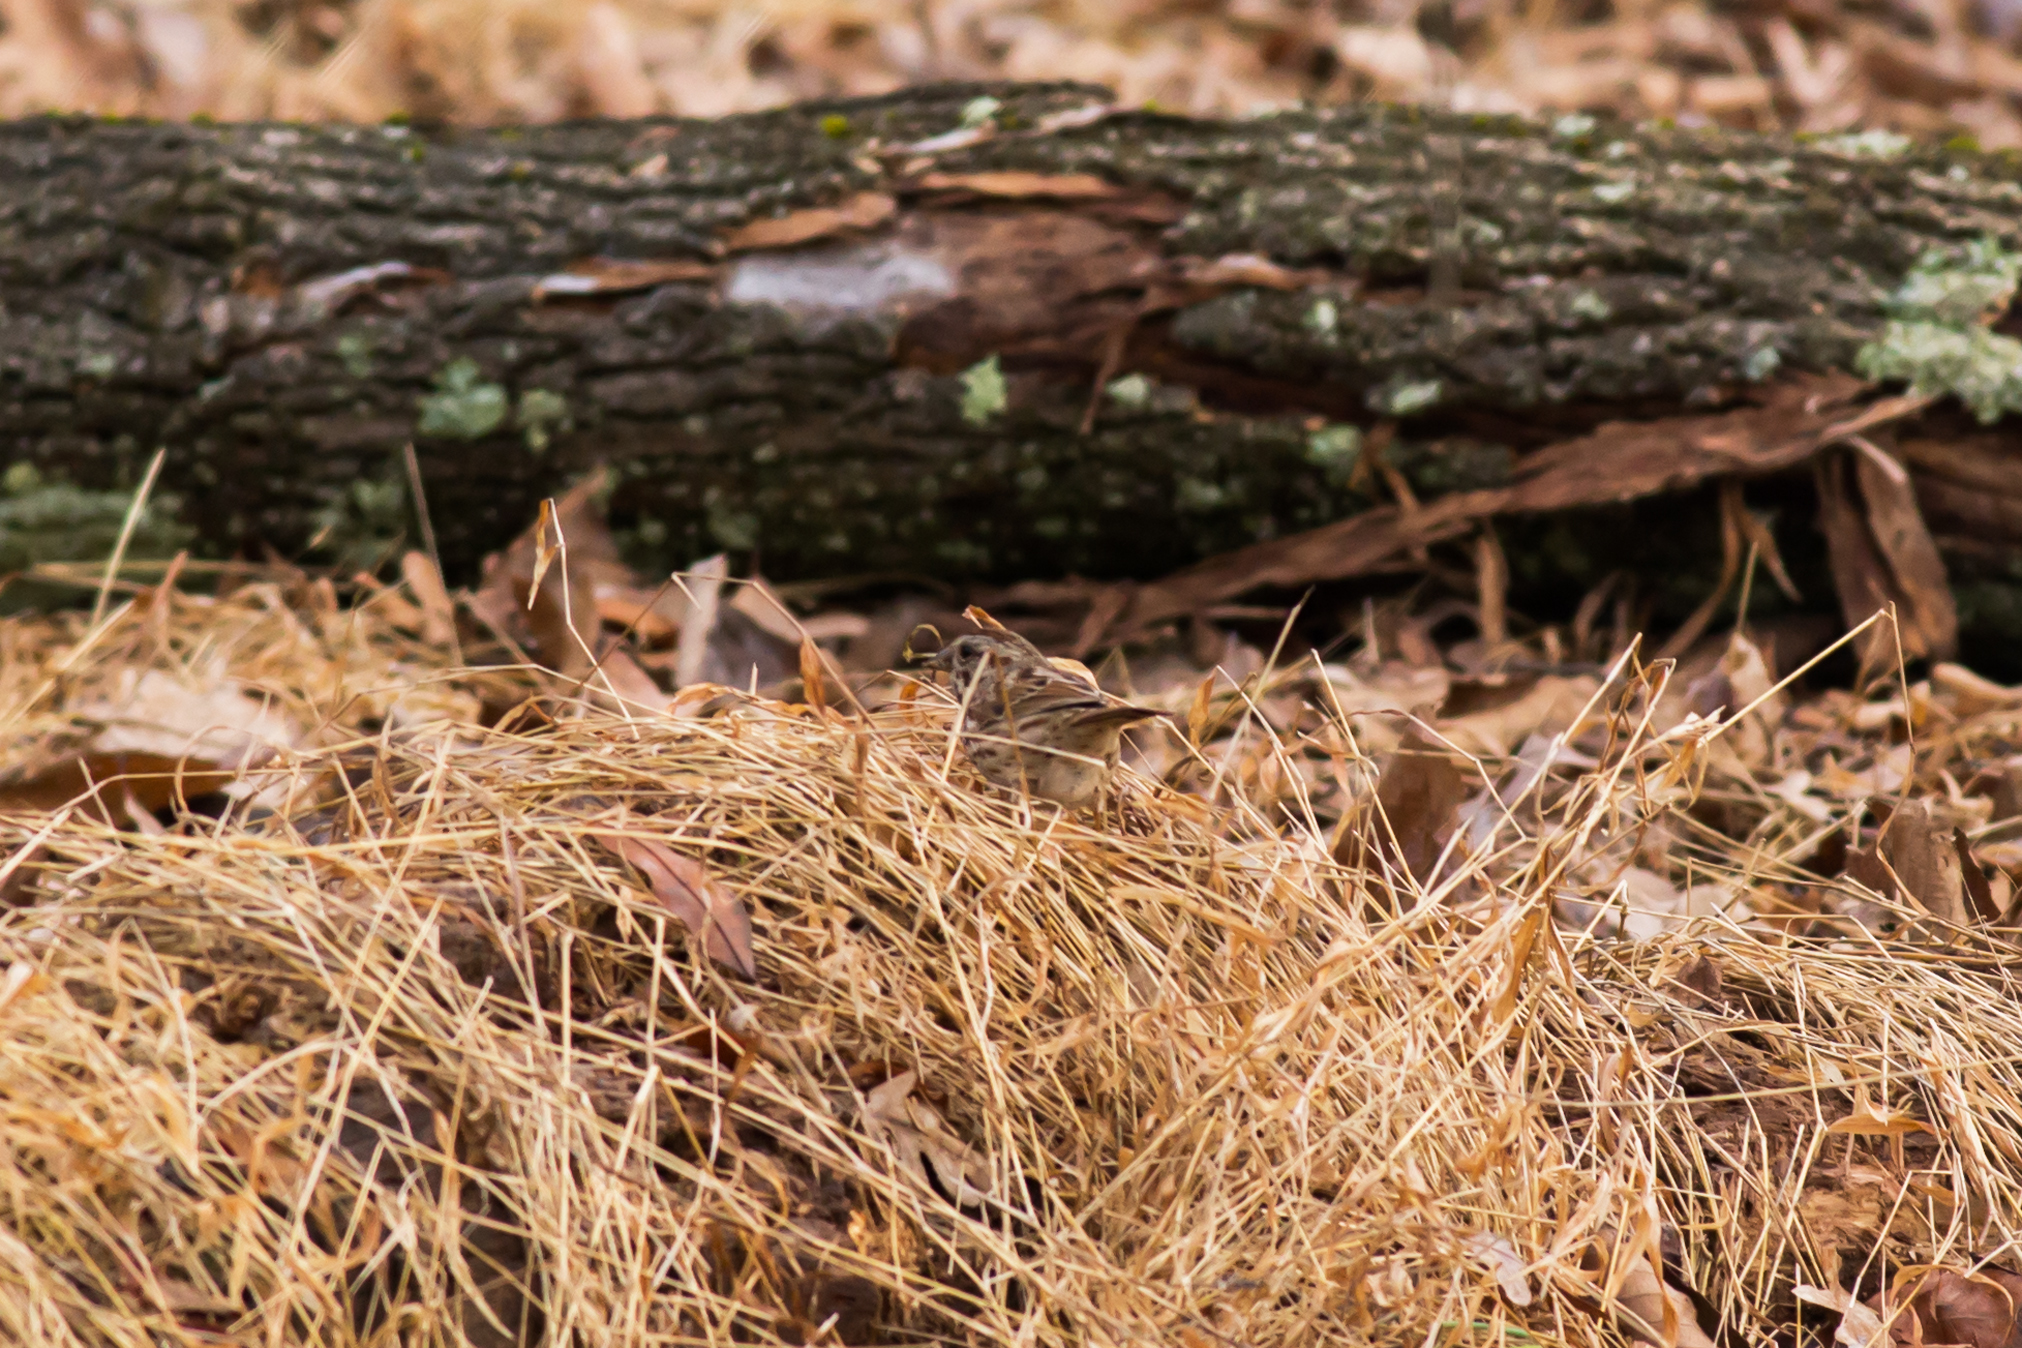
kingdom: Animalia
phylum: Chordata
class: Aves
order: Passeriformes
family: Passerellidae
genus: Melospiza
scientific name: Melospiza melodia
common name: Song sparrow
